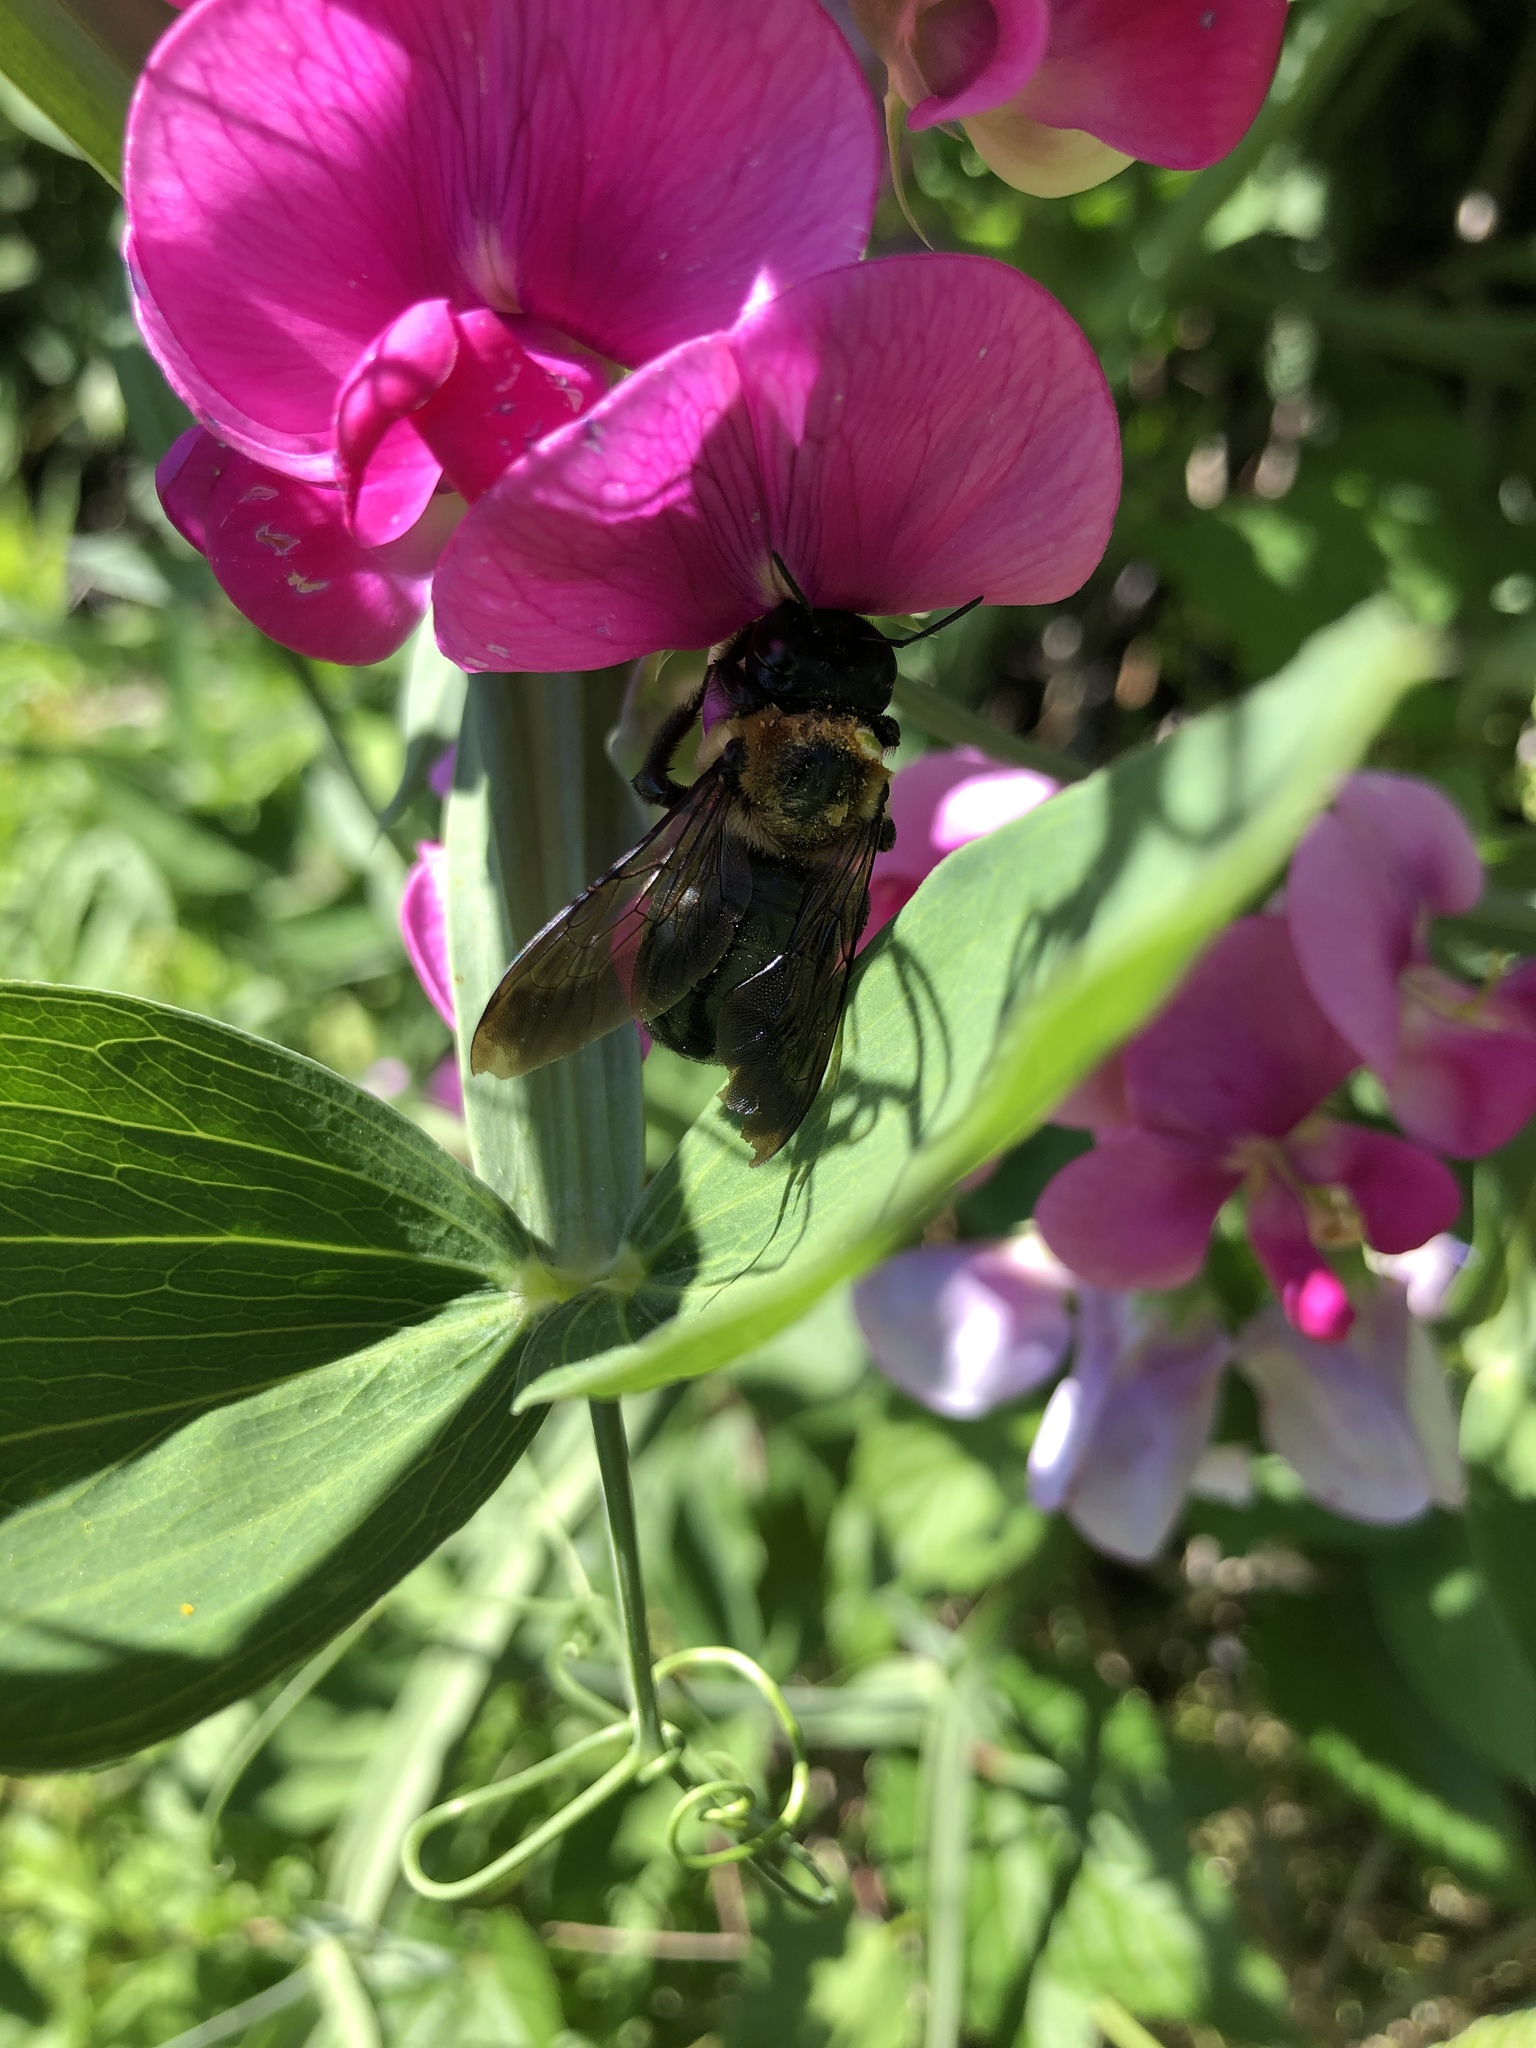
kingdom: Animalia
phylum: Arthropoda
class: Insecta
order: Hymenoptera
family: Apidae
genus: Xylocopa
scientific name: Xylocopa virginica
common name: Carpenter bee
